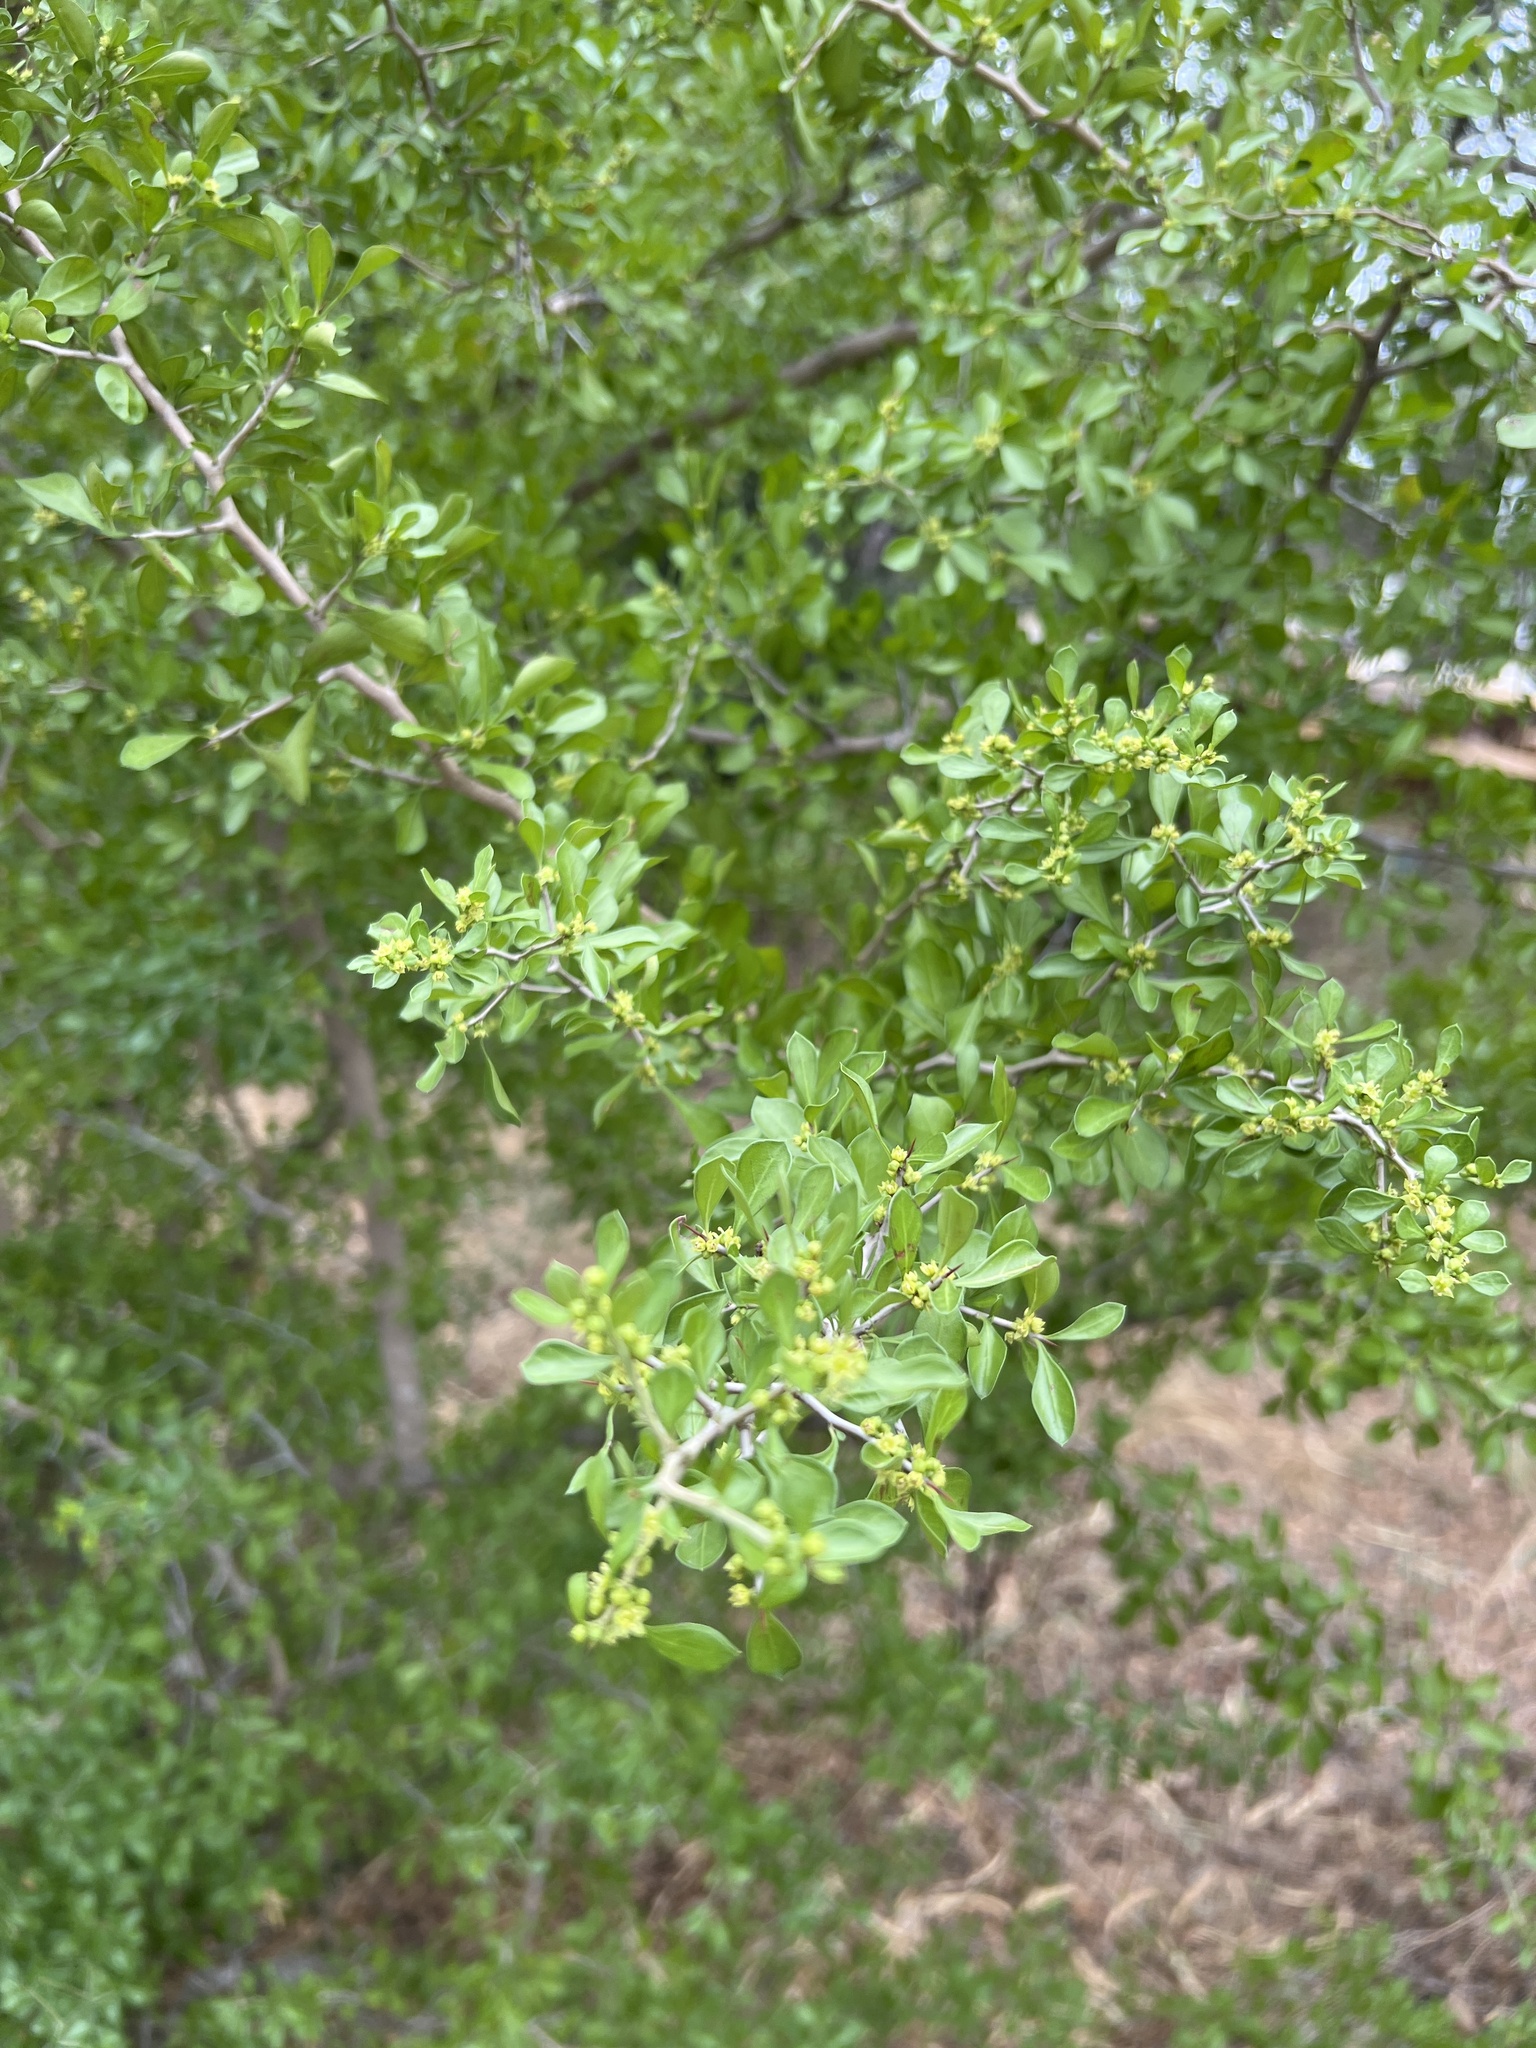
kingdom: Plantae
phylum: Tracheophyta
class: Magnoliopsida
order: Rosales
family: Rhamnaceae
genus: Condalia
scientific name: Condalia hookeri
